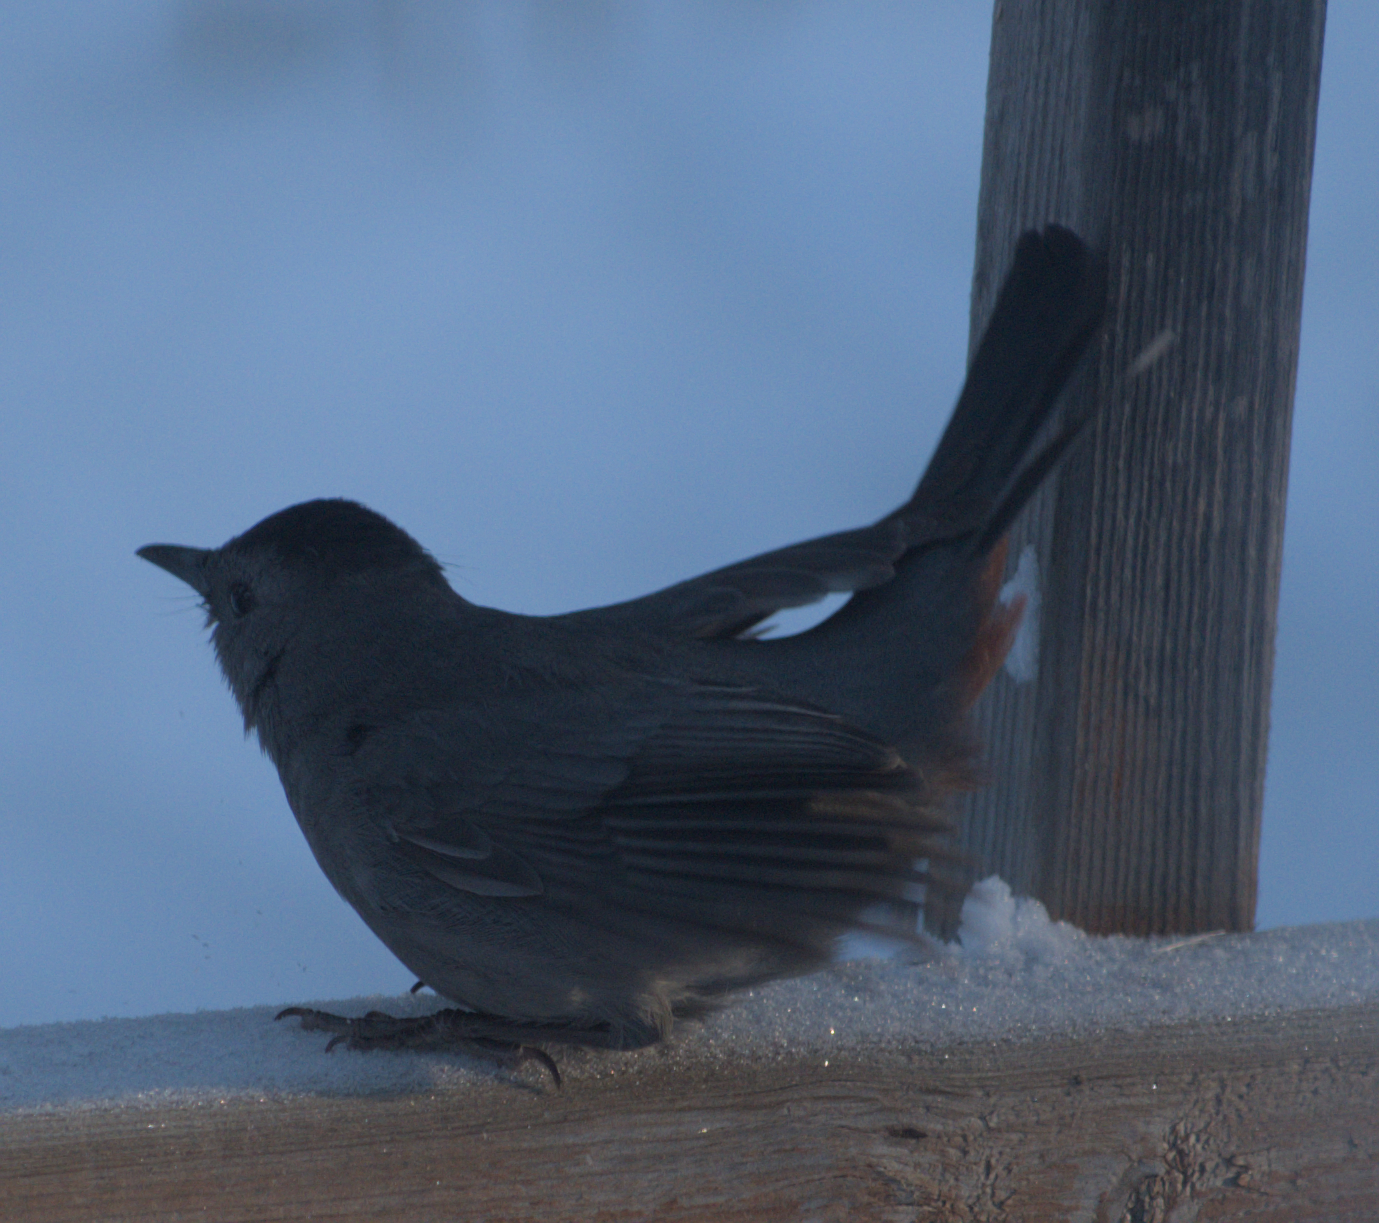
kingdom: Animalia
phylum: Chordata
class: Aves
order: Passeriformes
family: Mimidae
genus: Dumetella
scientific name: Dumetella carolinensis
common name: Gray catbird
